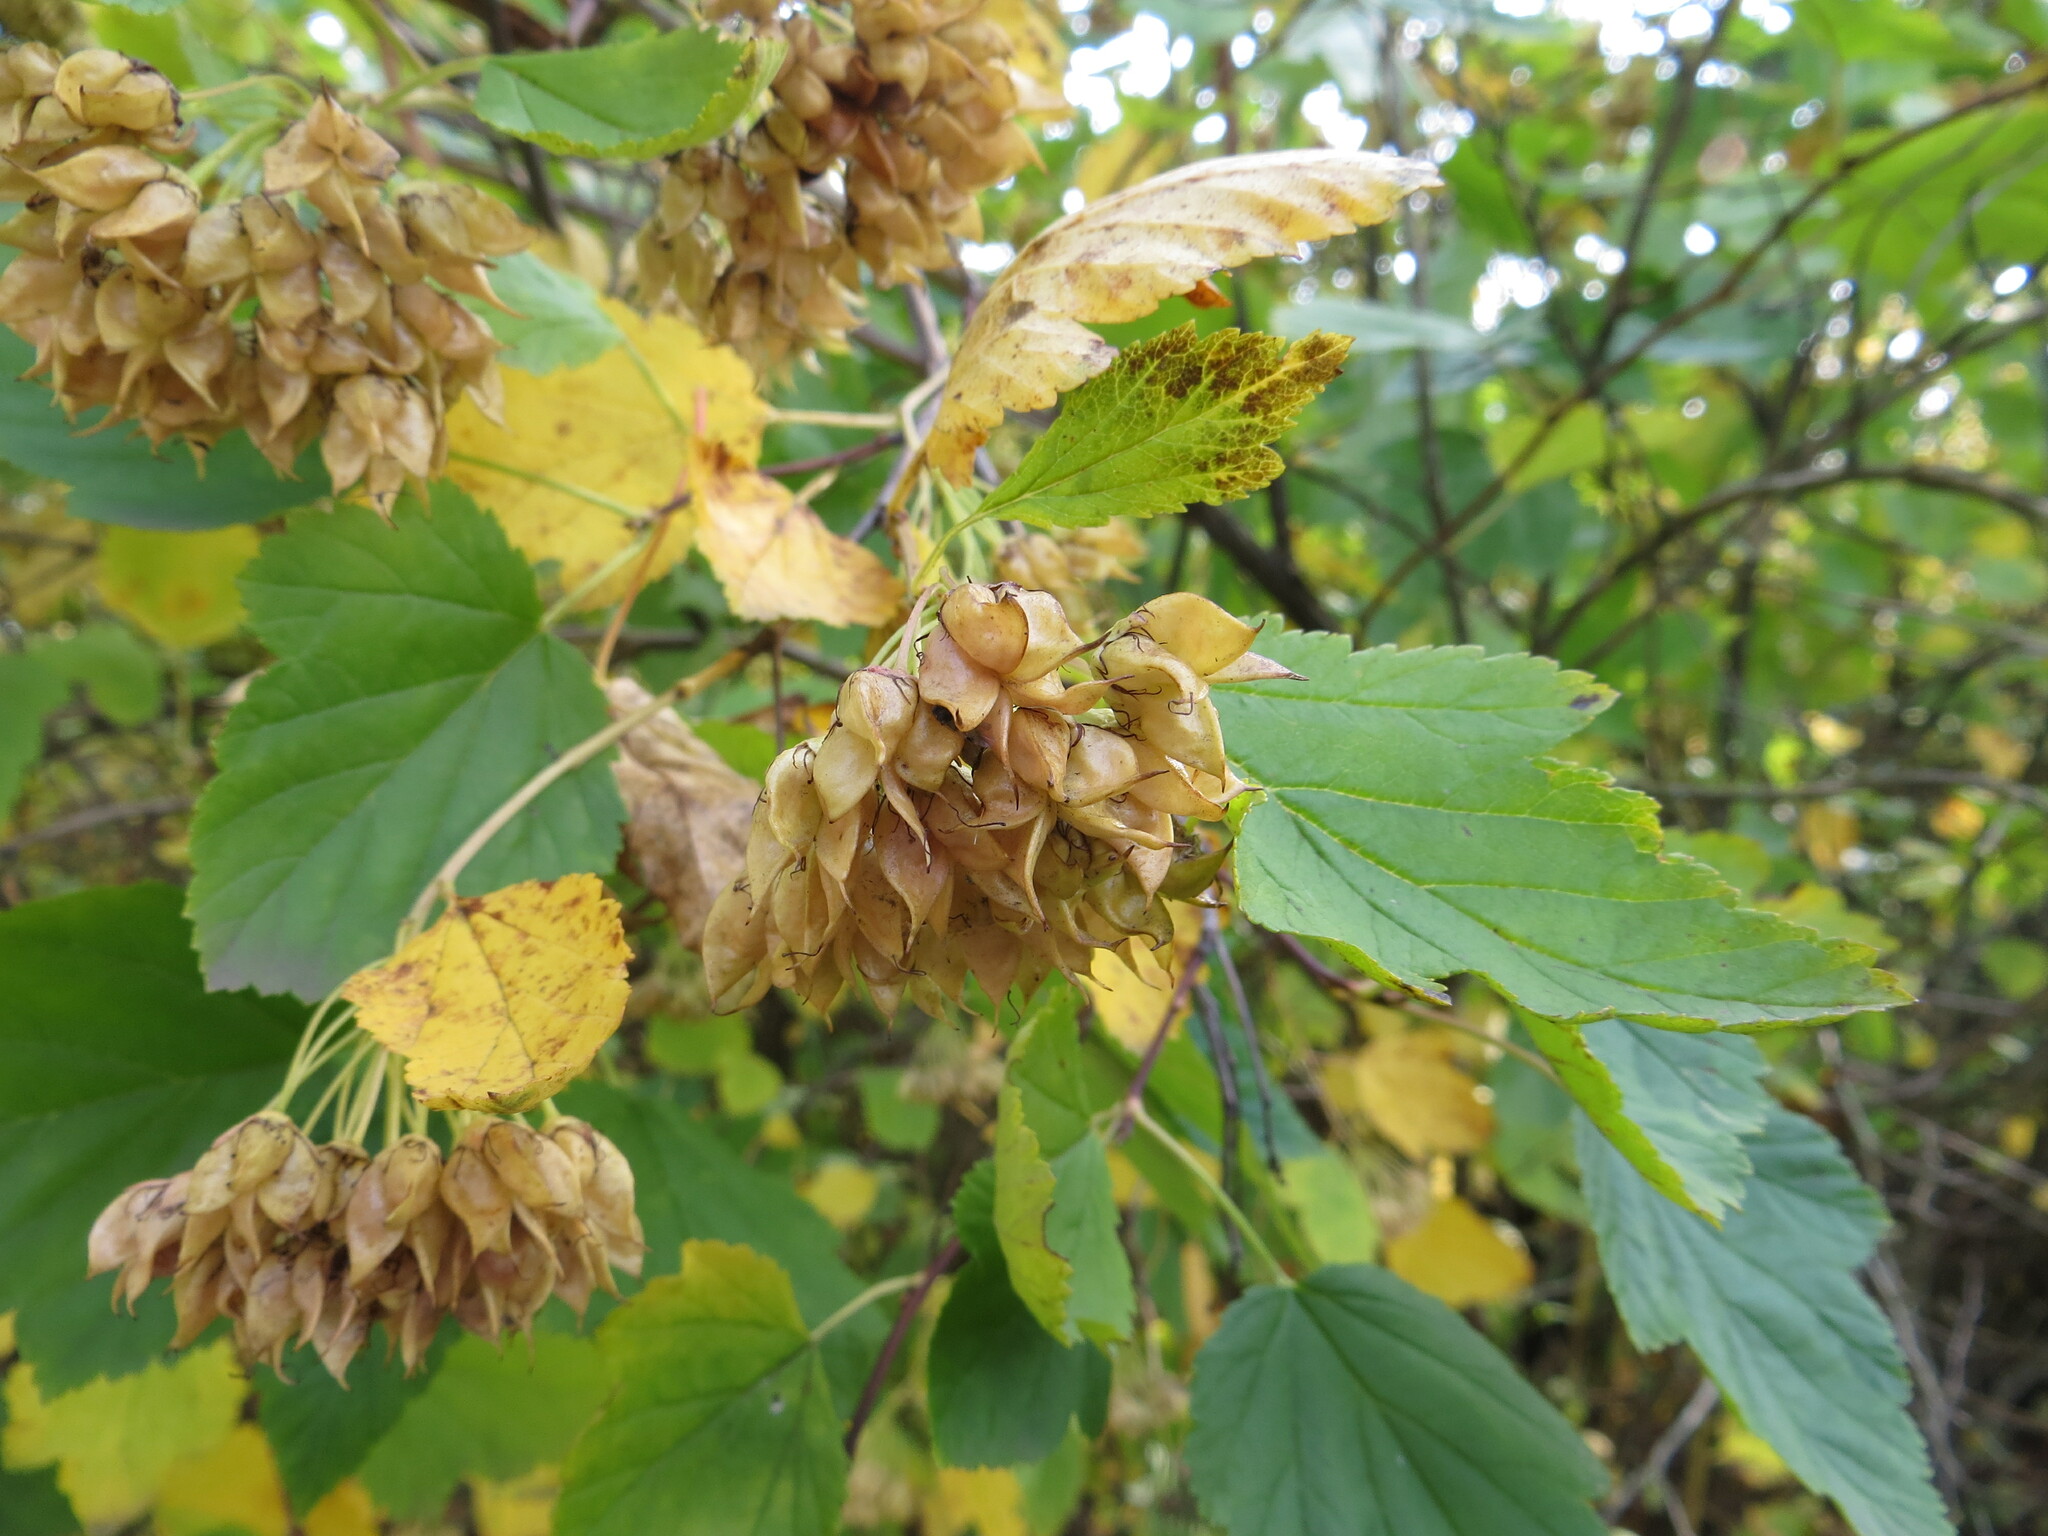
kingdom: Plantae
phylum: Tracheophyta
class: Magnoliopsida
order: Rosales
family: Rosaceae
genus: Physocarpus
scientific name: Physocarpus opulifolius
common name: Ninebark
